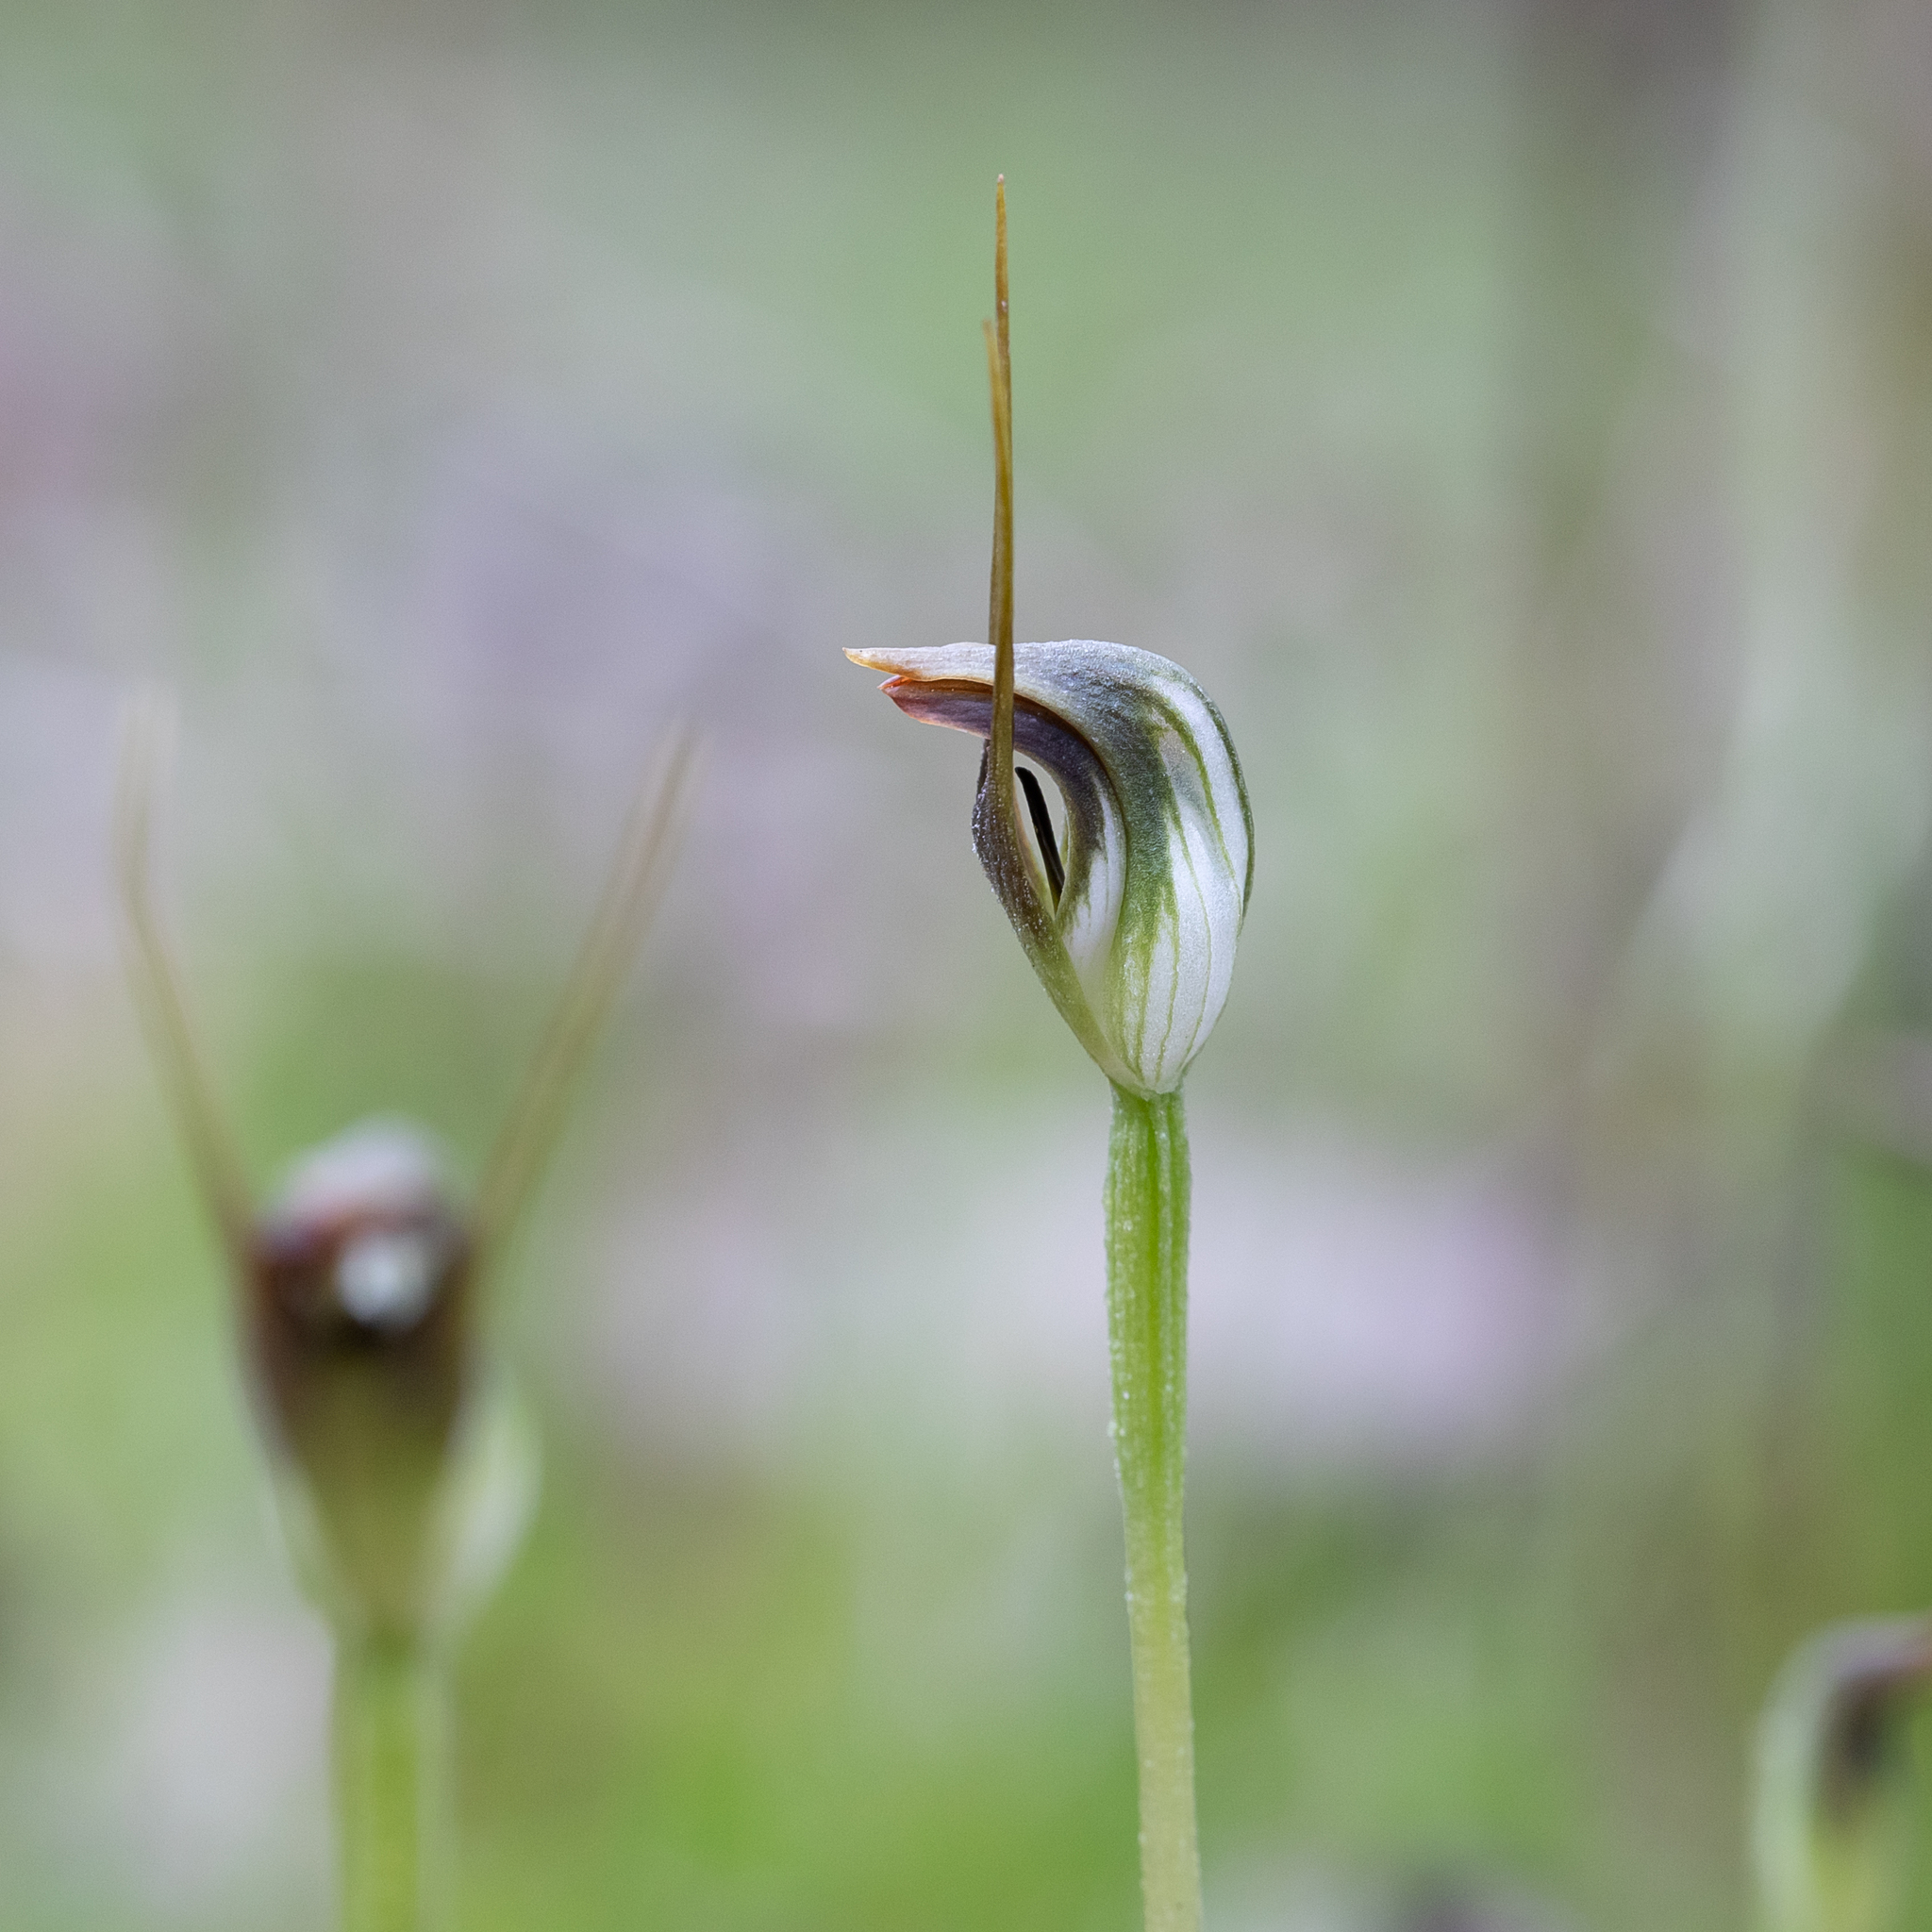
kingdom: Plantae
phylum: Tracheophyta
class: Liliopsida
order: Asparagales
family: Orchidaceae
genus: Pterostylis
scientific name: Pterostylis pedunculata
